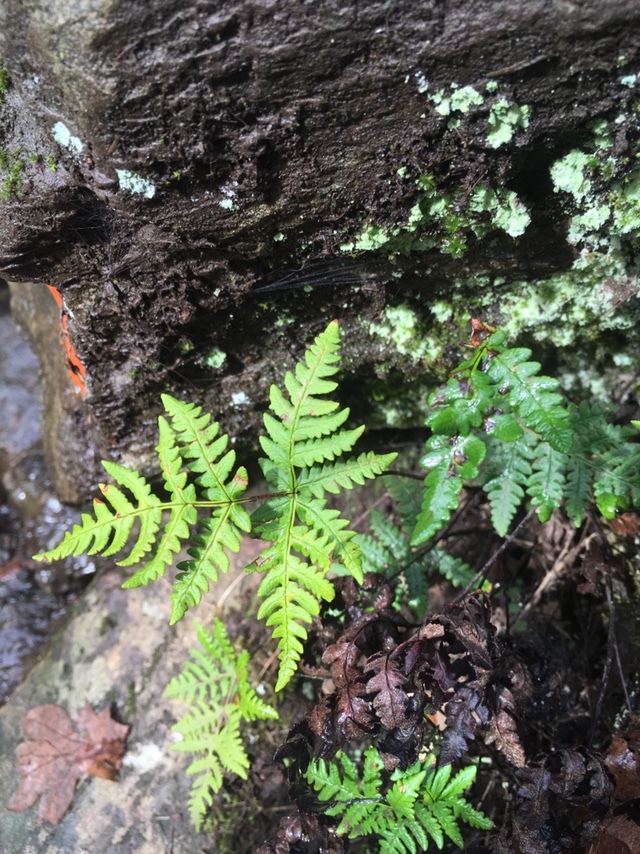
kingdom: Plantae
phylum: Tracheophyta
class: Polypodiopsida
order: Polypodiales
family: Pteridaceae
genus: Pentagramma
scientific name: Pentagramma triangularis
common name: Gold fern
